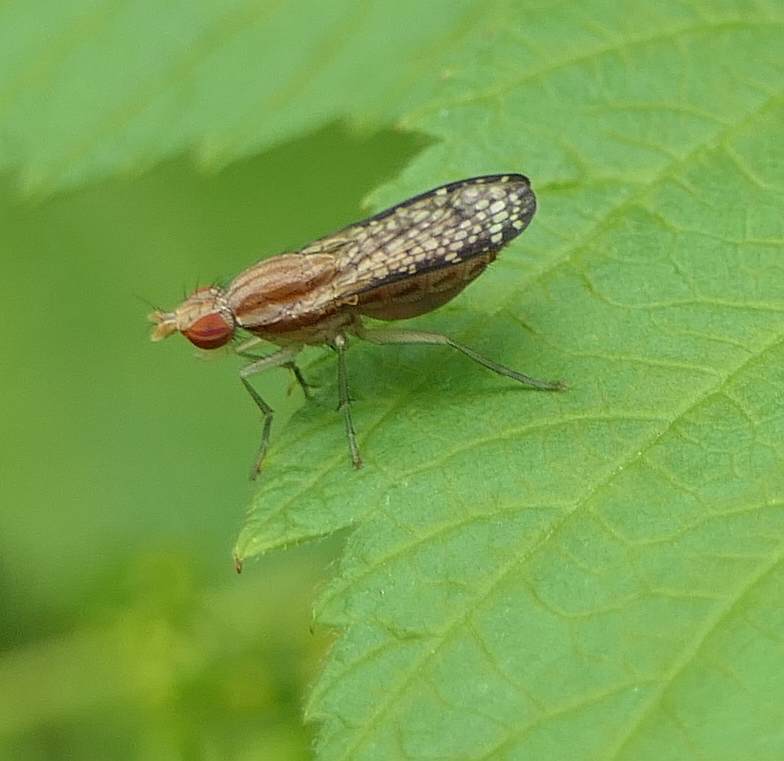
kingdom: Animalia
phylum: Arthropoda
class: Insecta
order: Diptera
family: Sciomyzidae
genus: Trypetoptera
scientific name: Trypetoptera canadensis
